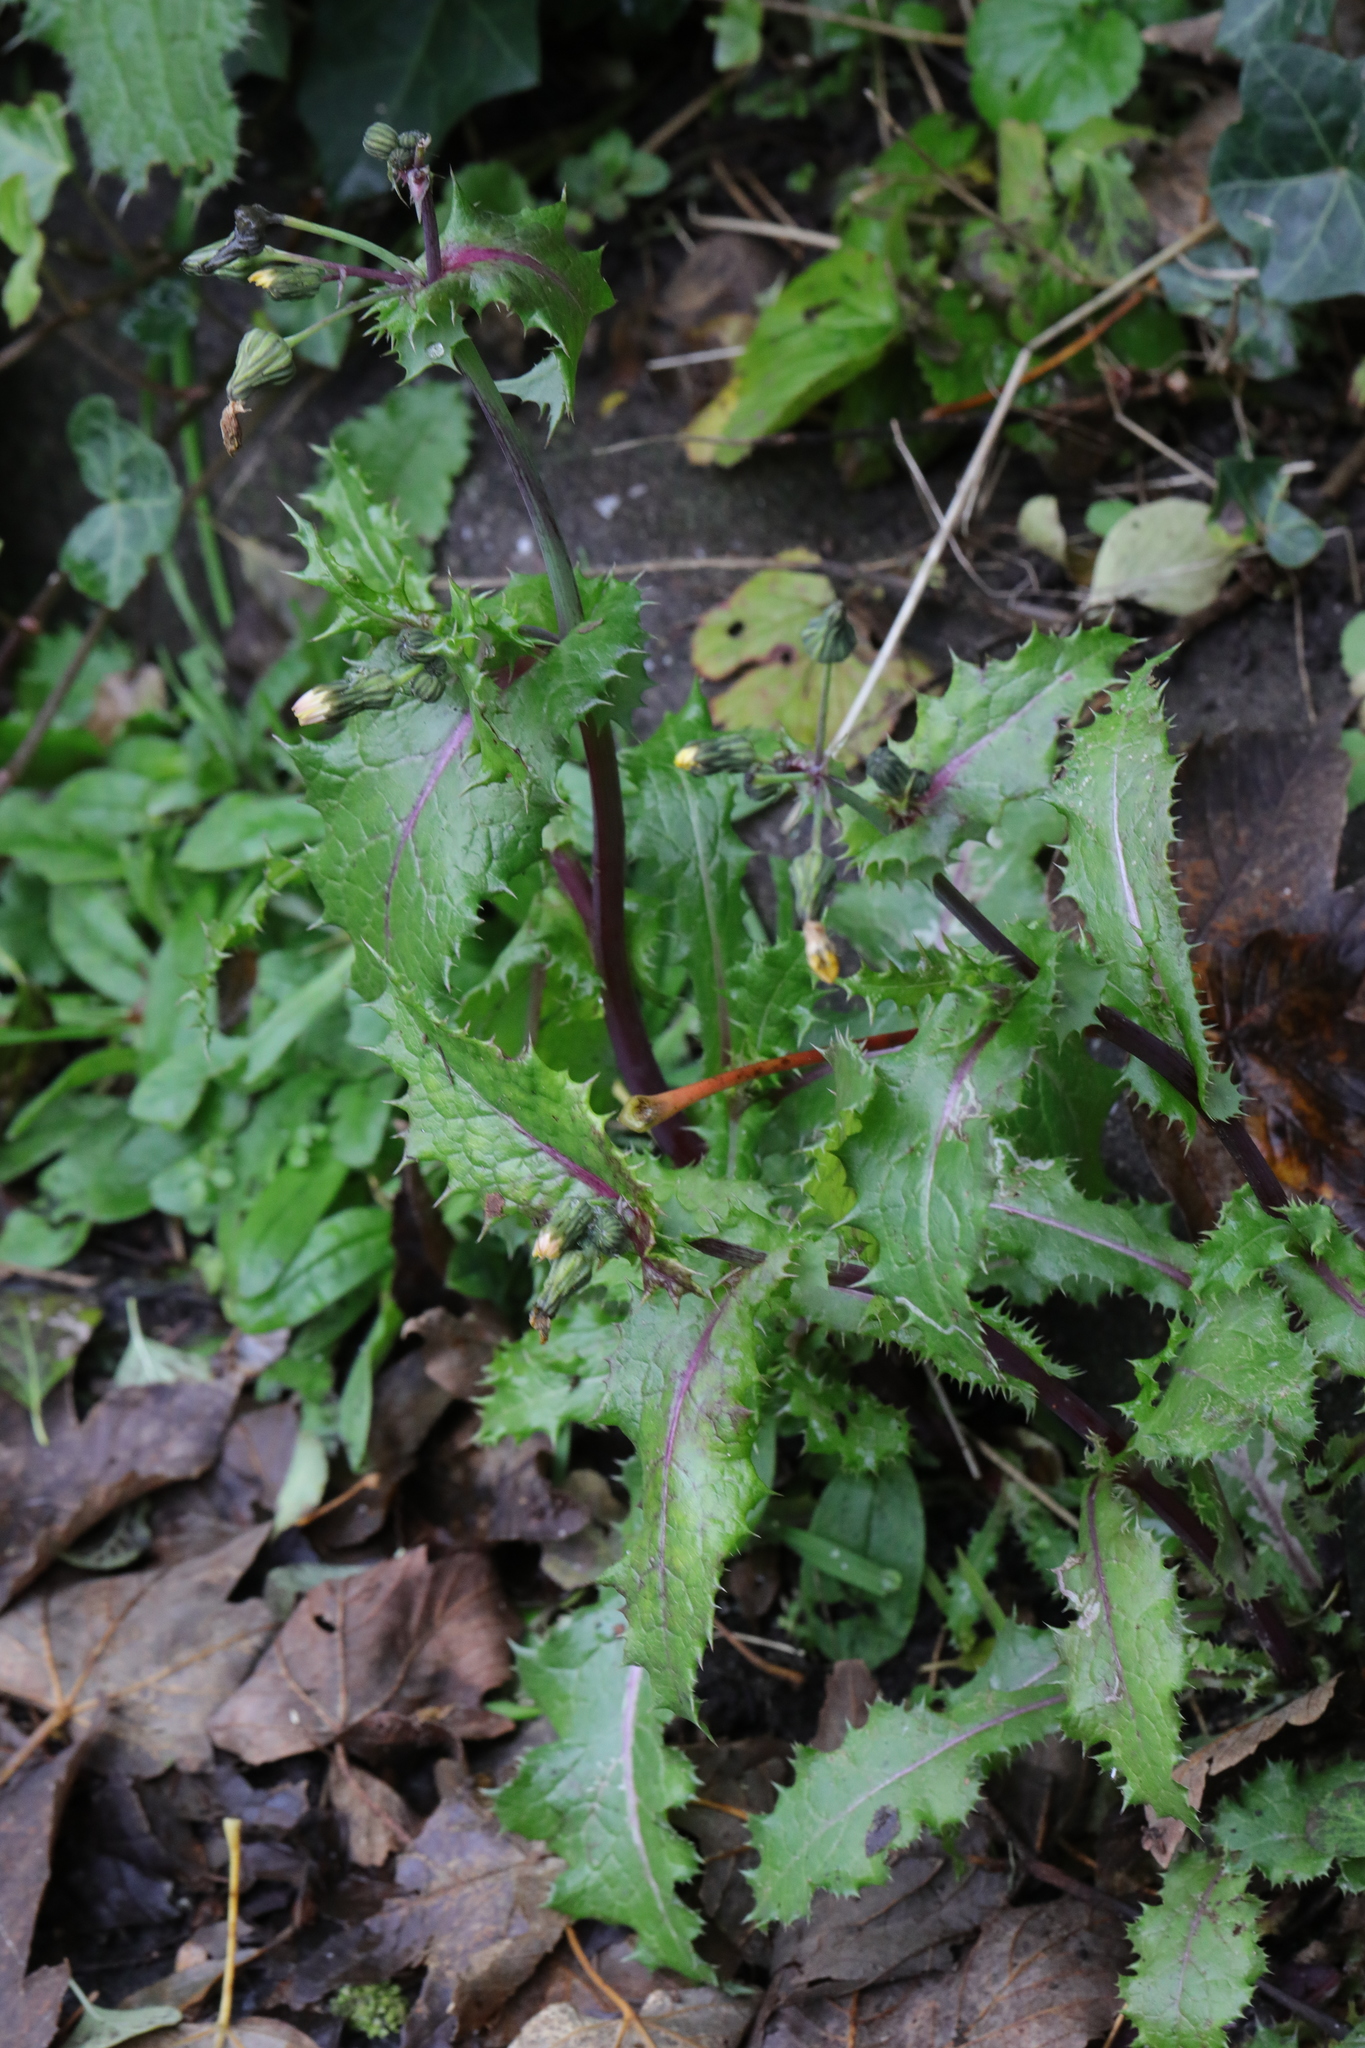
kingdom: Plantae
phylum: Tracheophyta
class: Magnoliopsida
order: Asterales
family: Asteraceae
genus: Sonchus
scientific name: Sonchus asper
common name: Prickly sow-thistle
